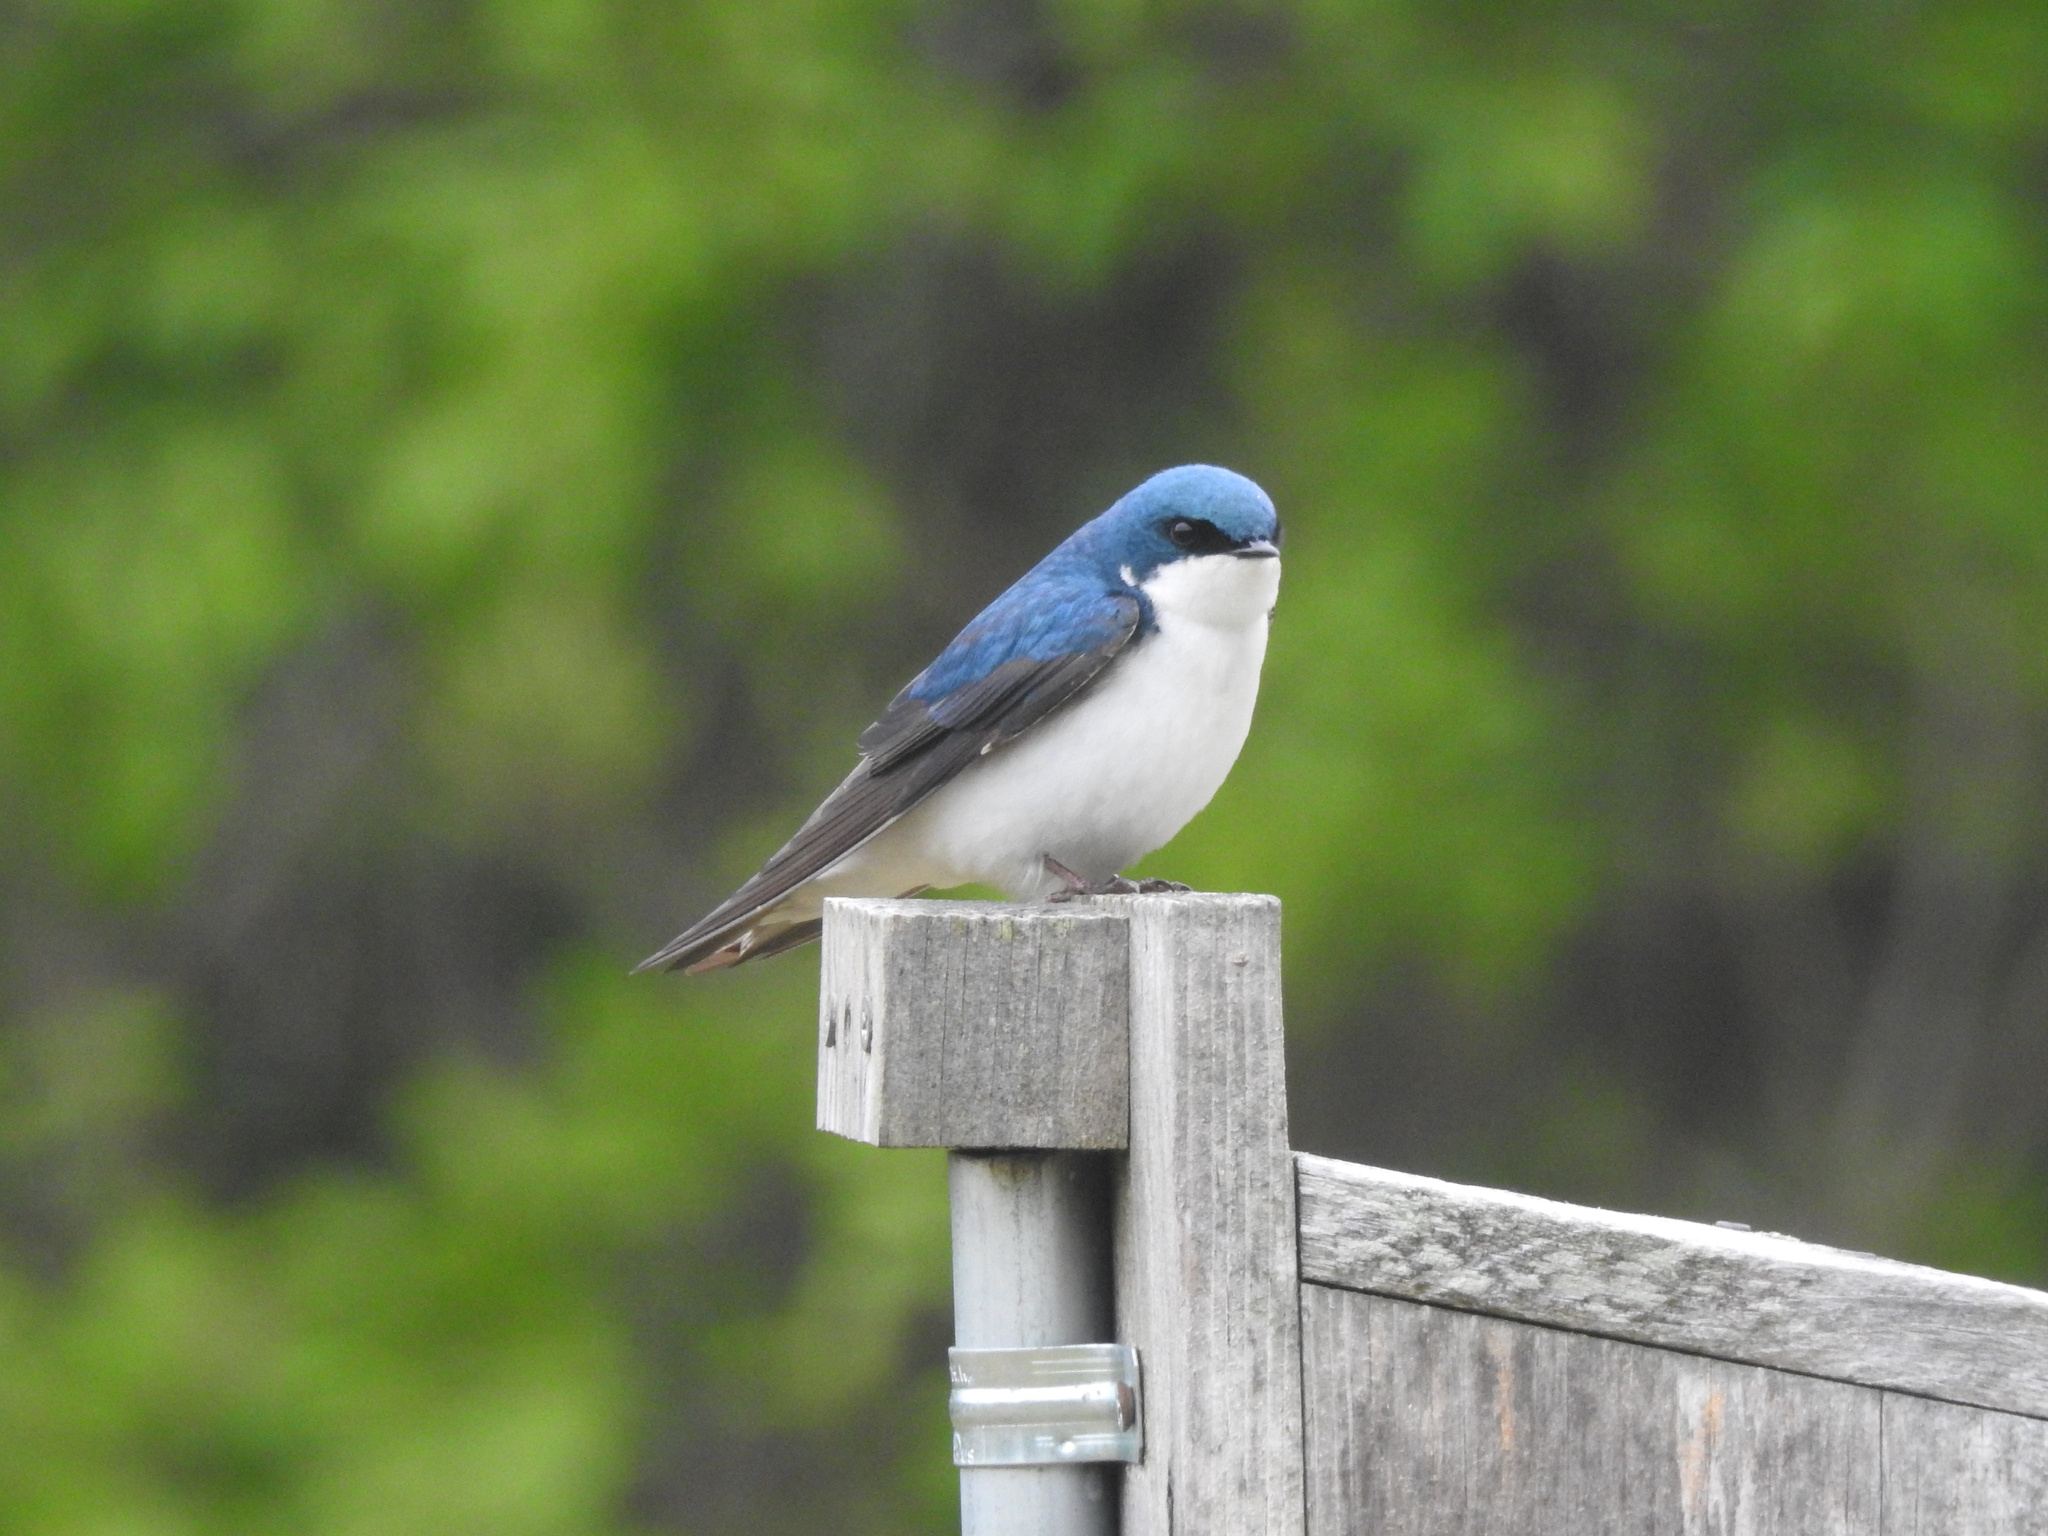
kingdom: Animalia
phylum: Chordata
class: Aves
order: Passeriformes
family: Hirundinidae
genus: Tachycineta
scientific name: Tachycineta bicolor
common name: Tree swallow
